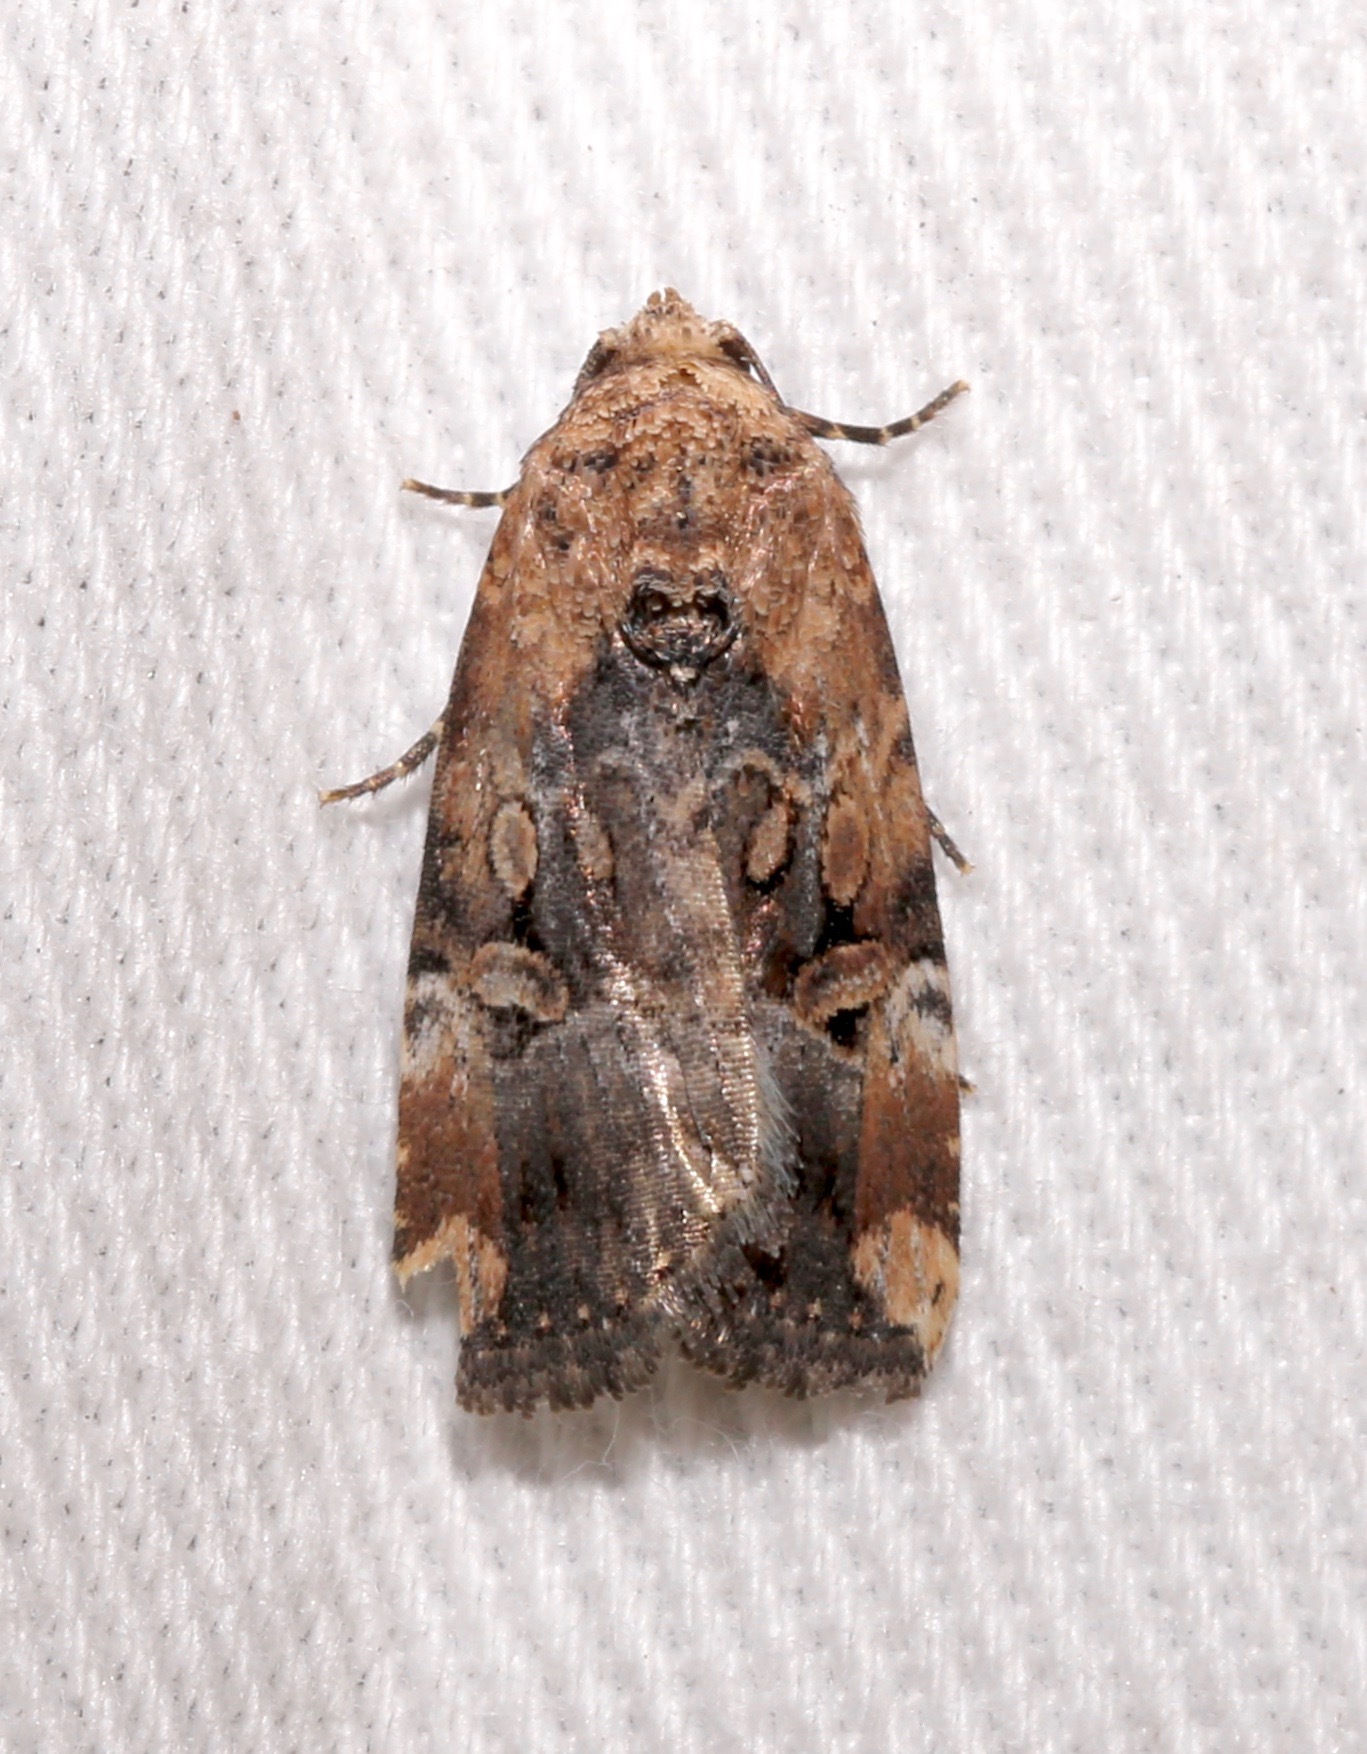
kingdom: Animalia
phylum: Arthropoda
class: Insecta
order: Lepidoptera
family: Noctuidae
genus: Elaphria
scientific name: Elaphria chalcedonia
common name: Chalcedony midget
